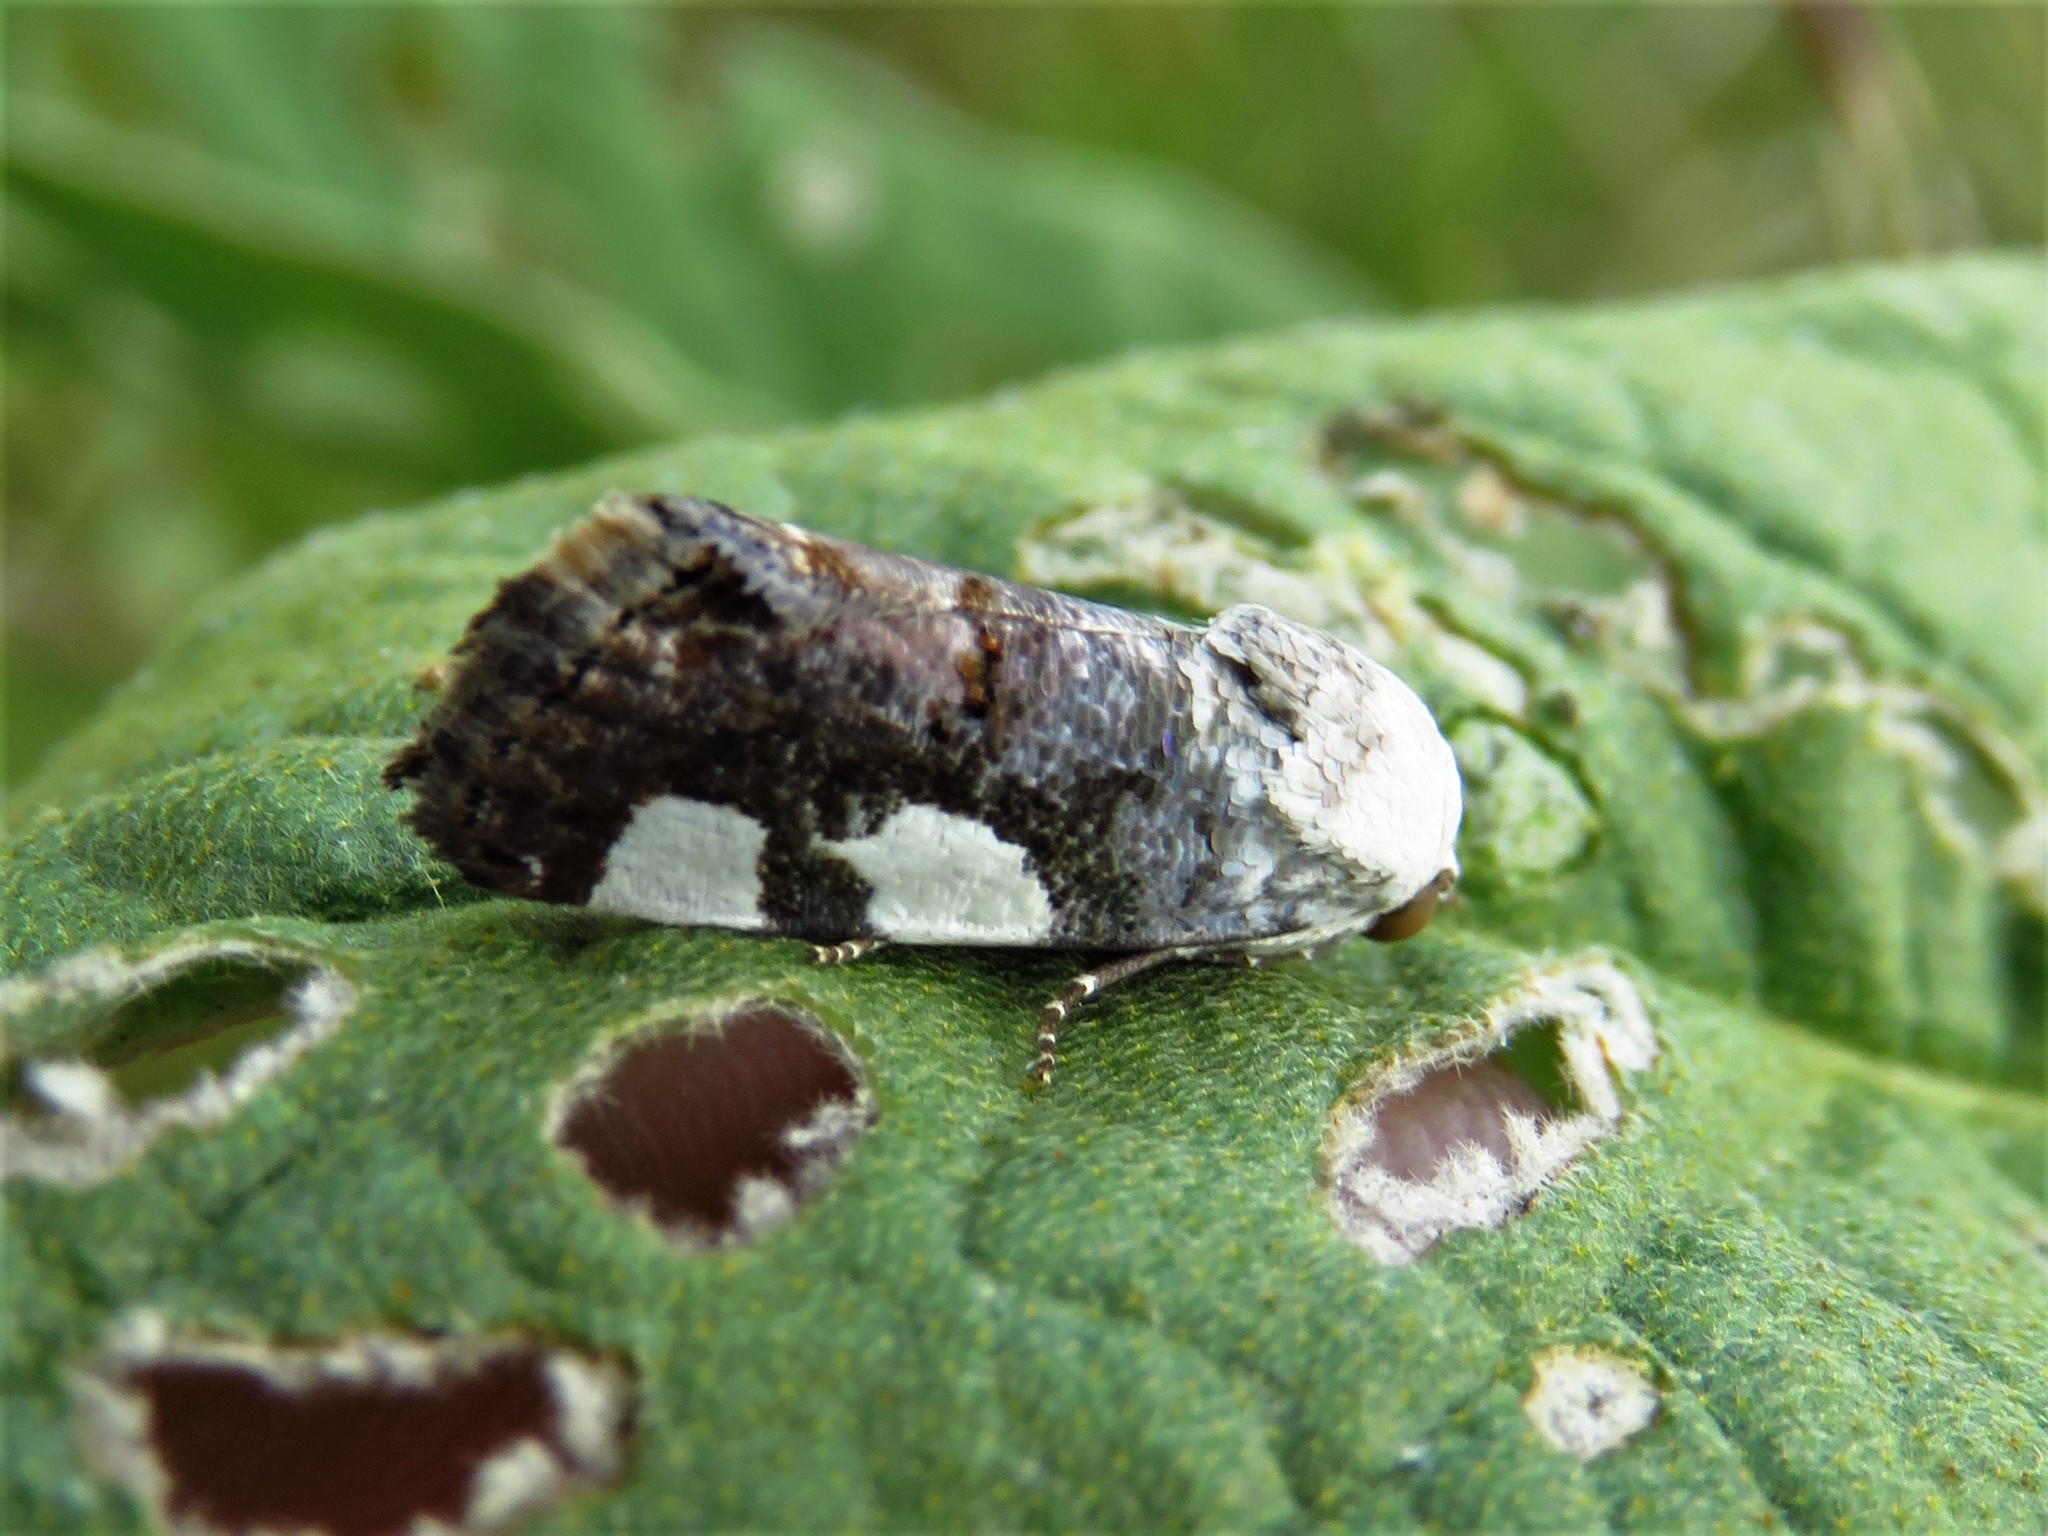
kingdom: Animalia
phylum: Arthropoda
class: Insecta
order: Lepidoptera
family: Noctuidae
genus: Acontia
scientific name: Acontia quadriplaga
